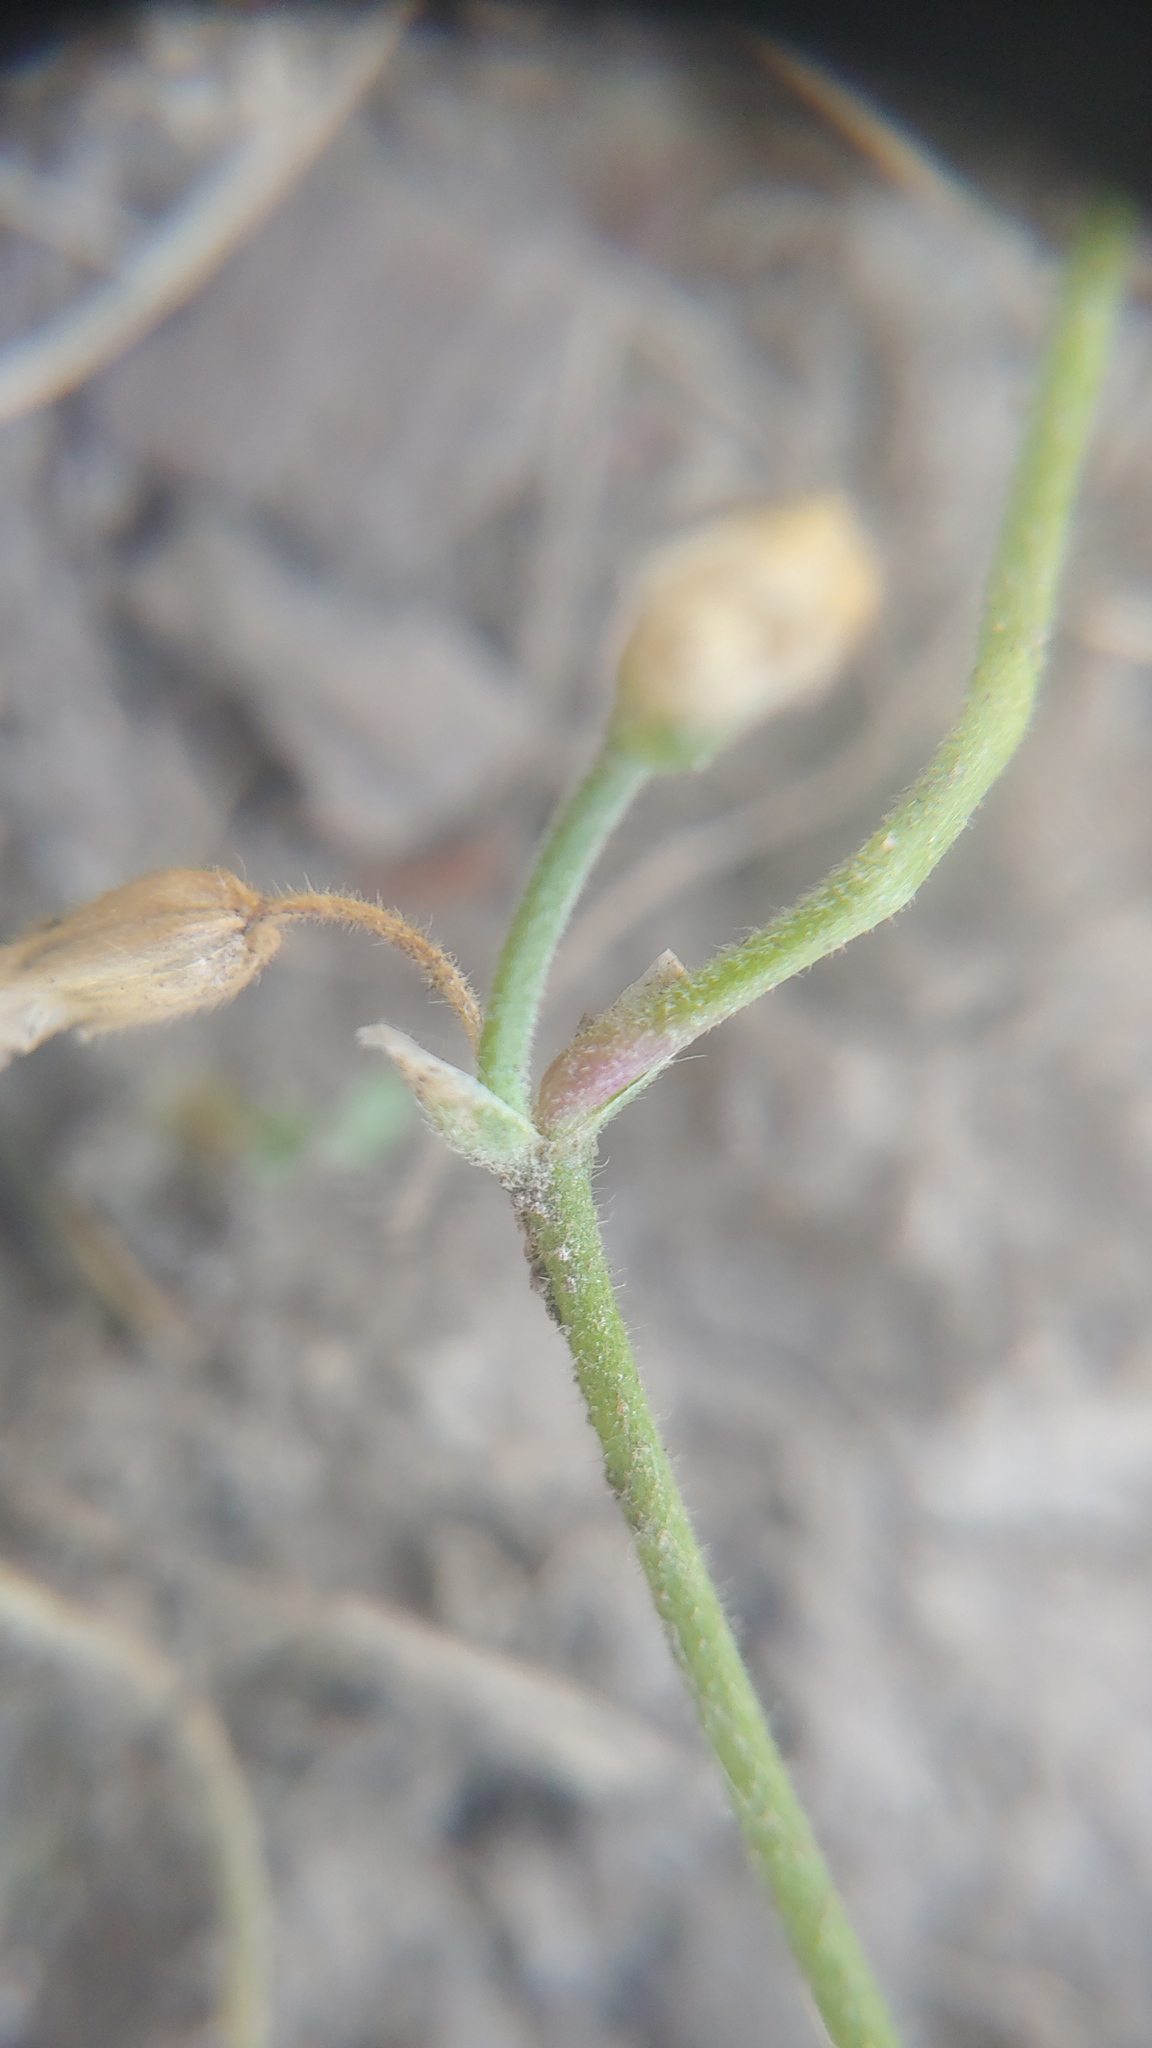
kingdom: Plantae
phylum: Tracheophyta
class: Magnoliopsida
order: Caryophyllales
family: Caryophyllaceae
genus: Cerastium
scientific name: Cerastium fontanum
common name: Common mouse-ear
